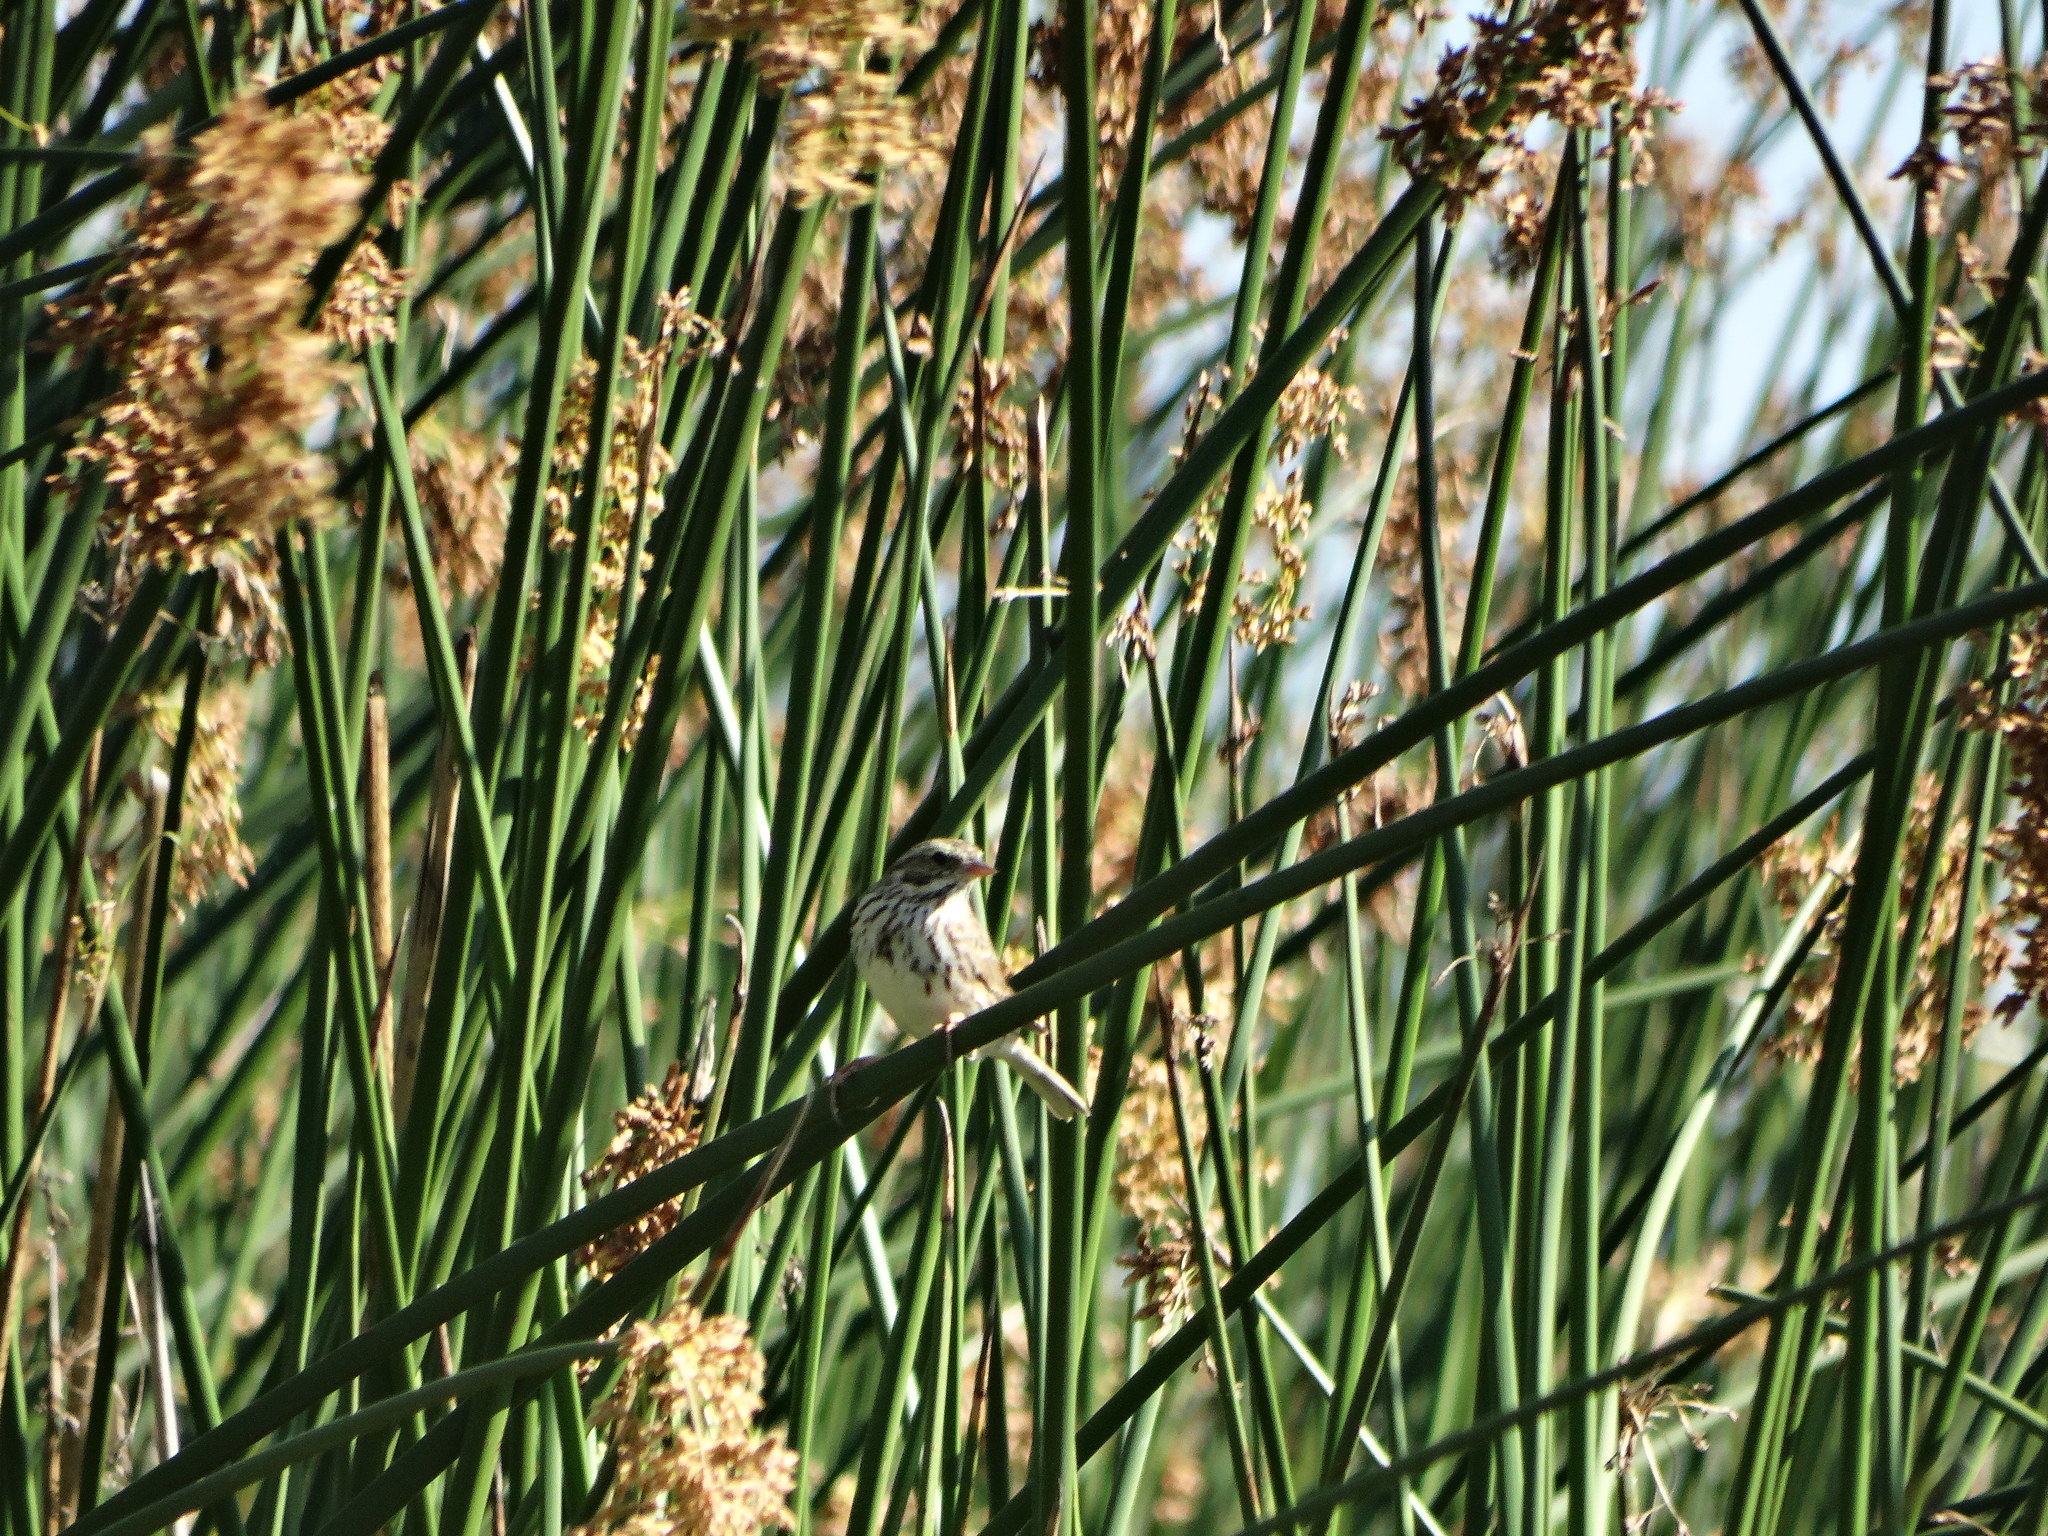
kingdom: Animalia
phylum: Chordata
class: Aves
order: Passeriformes
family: Passerellidae
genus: Passerculus
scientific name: Passerculus sandwichensis
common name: Savannah sparrow
